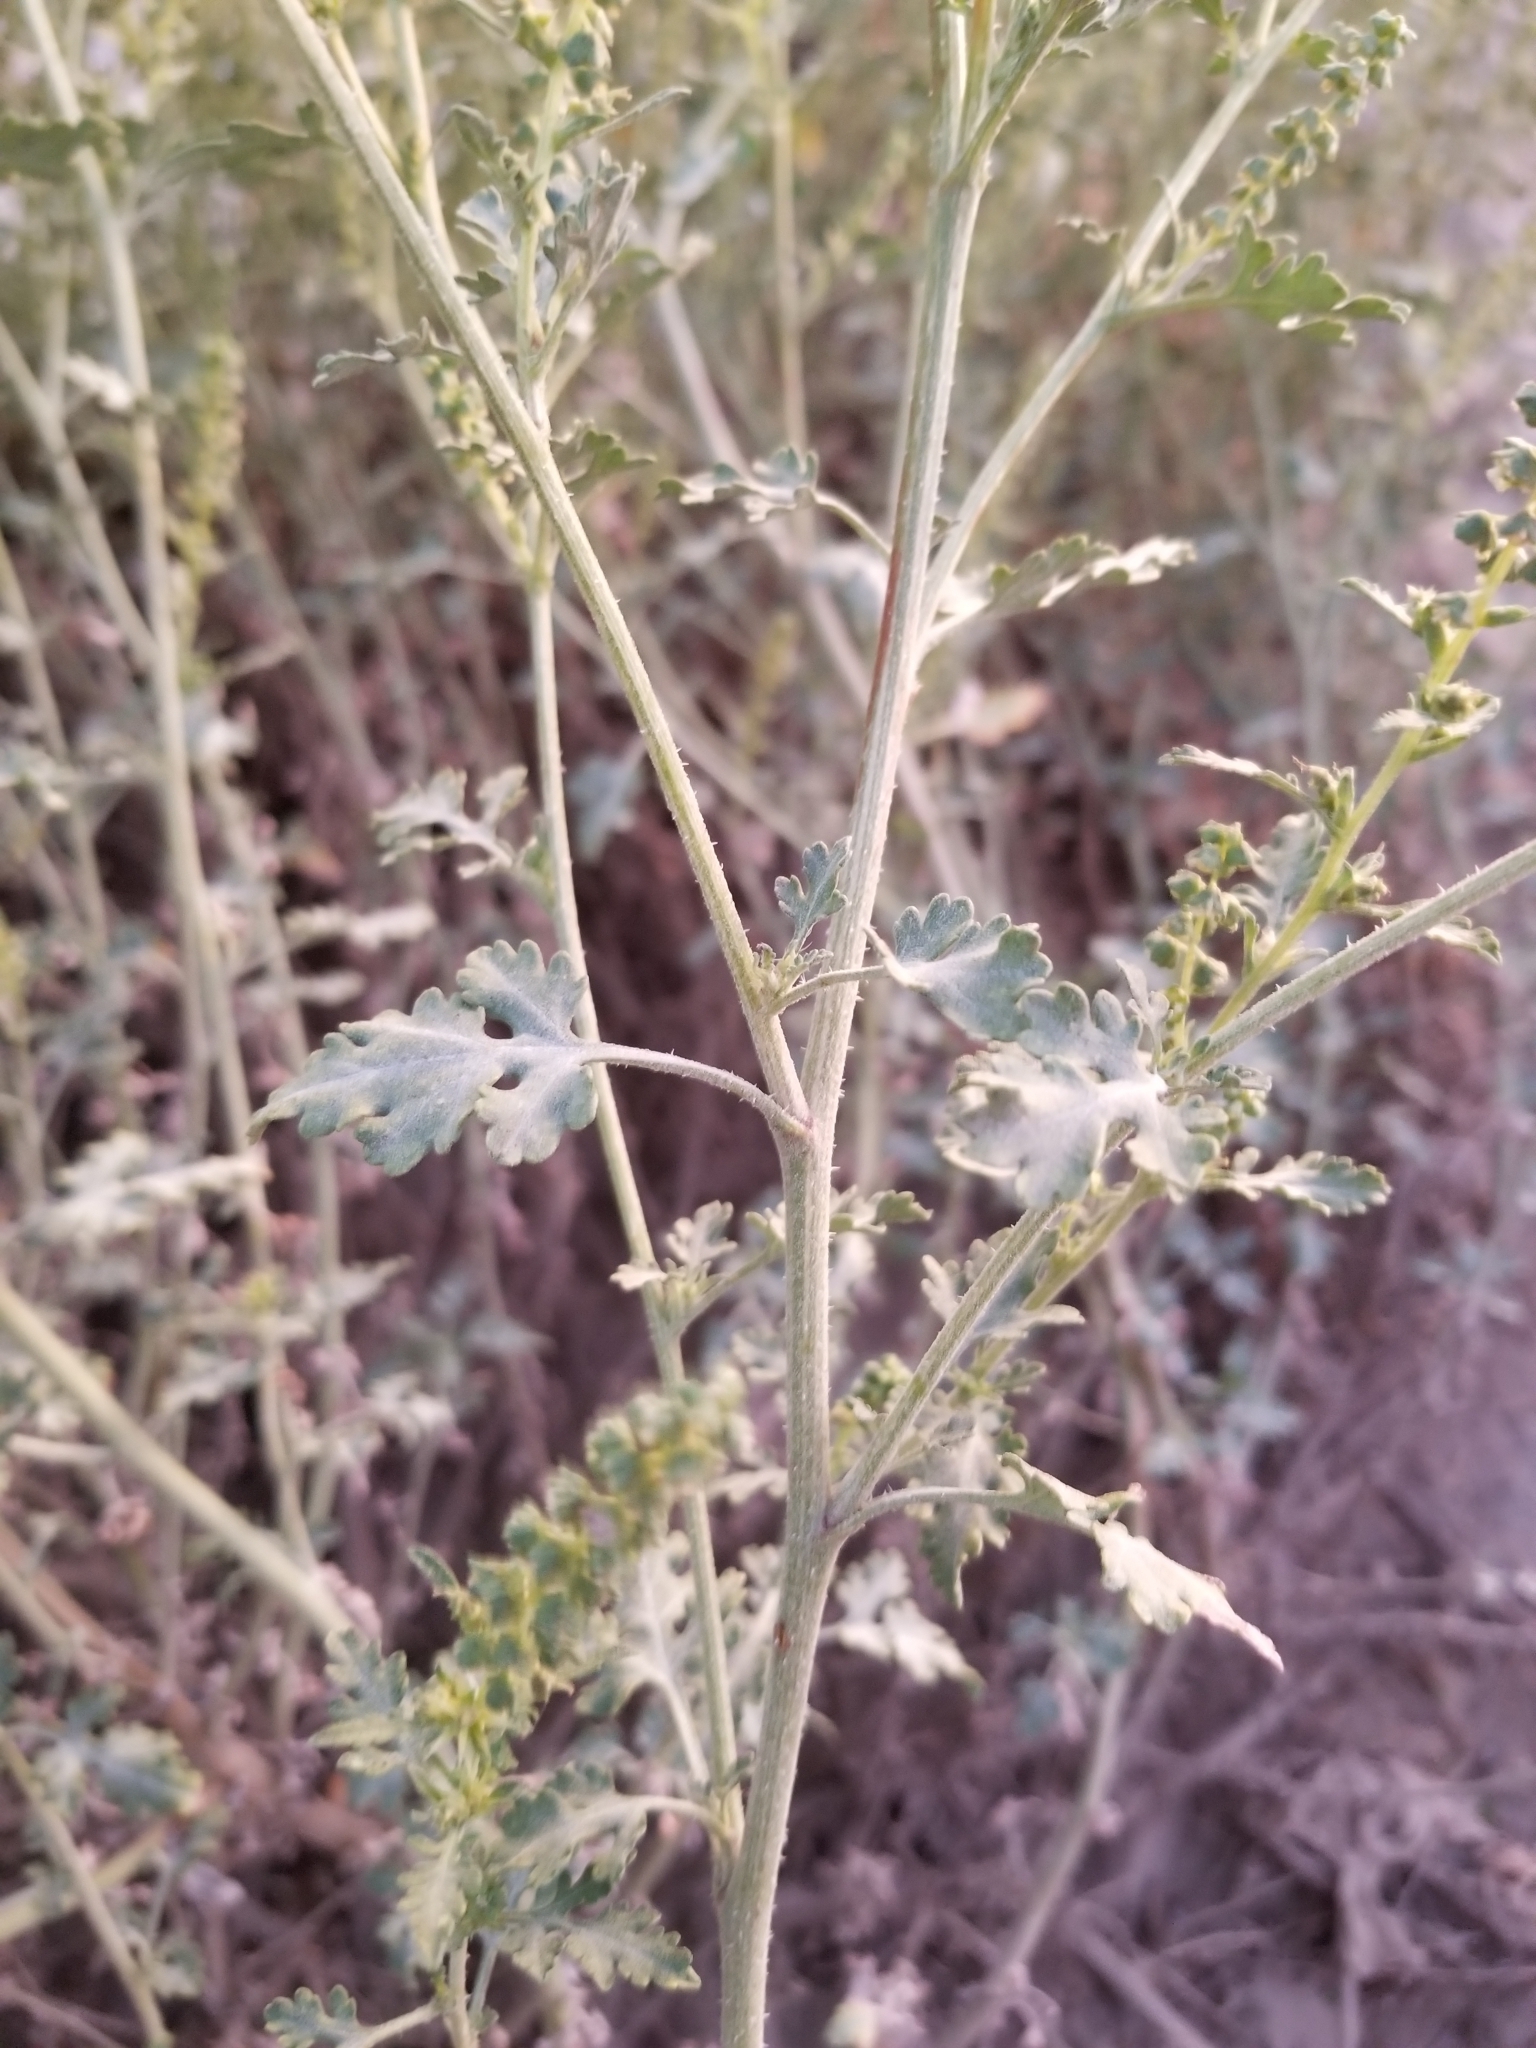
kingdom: Plantae
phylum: Tracheophyta
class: Magnoliopsida
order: Asterales
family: Asteraceae
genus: Ambrosia
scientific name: Ambrosia acanthicarpa
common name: Hooker's bur ragweed
